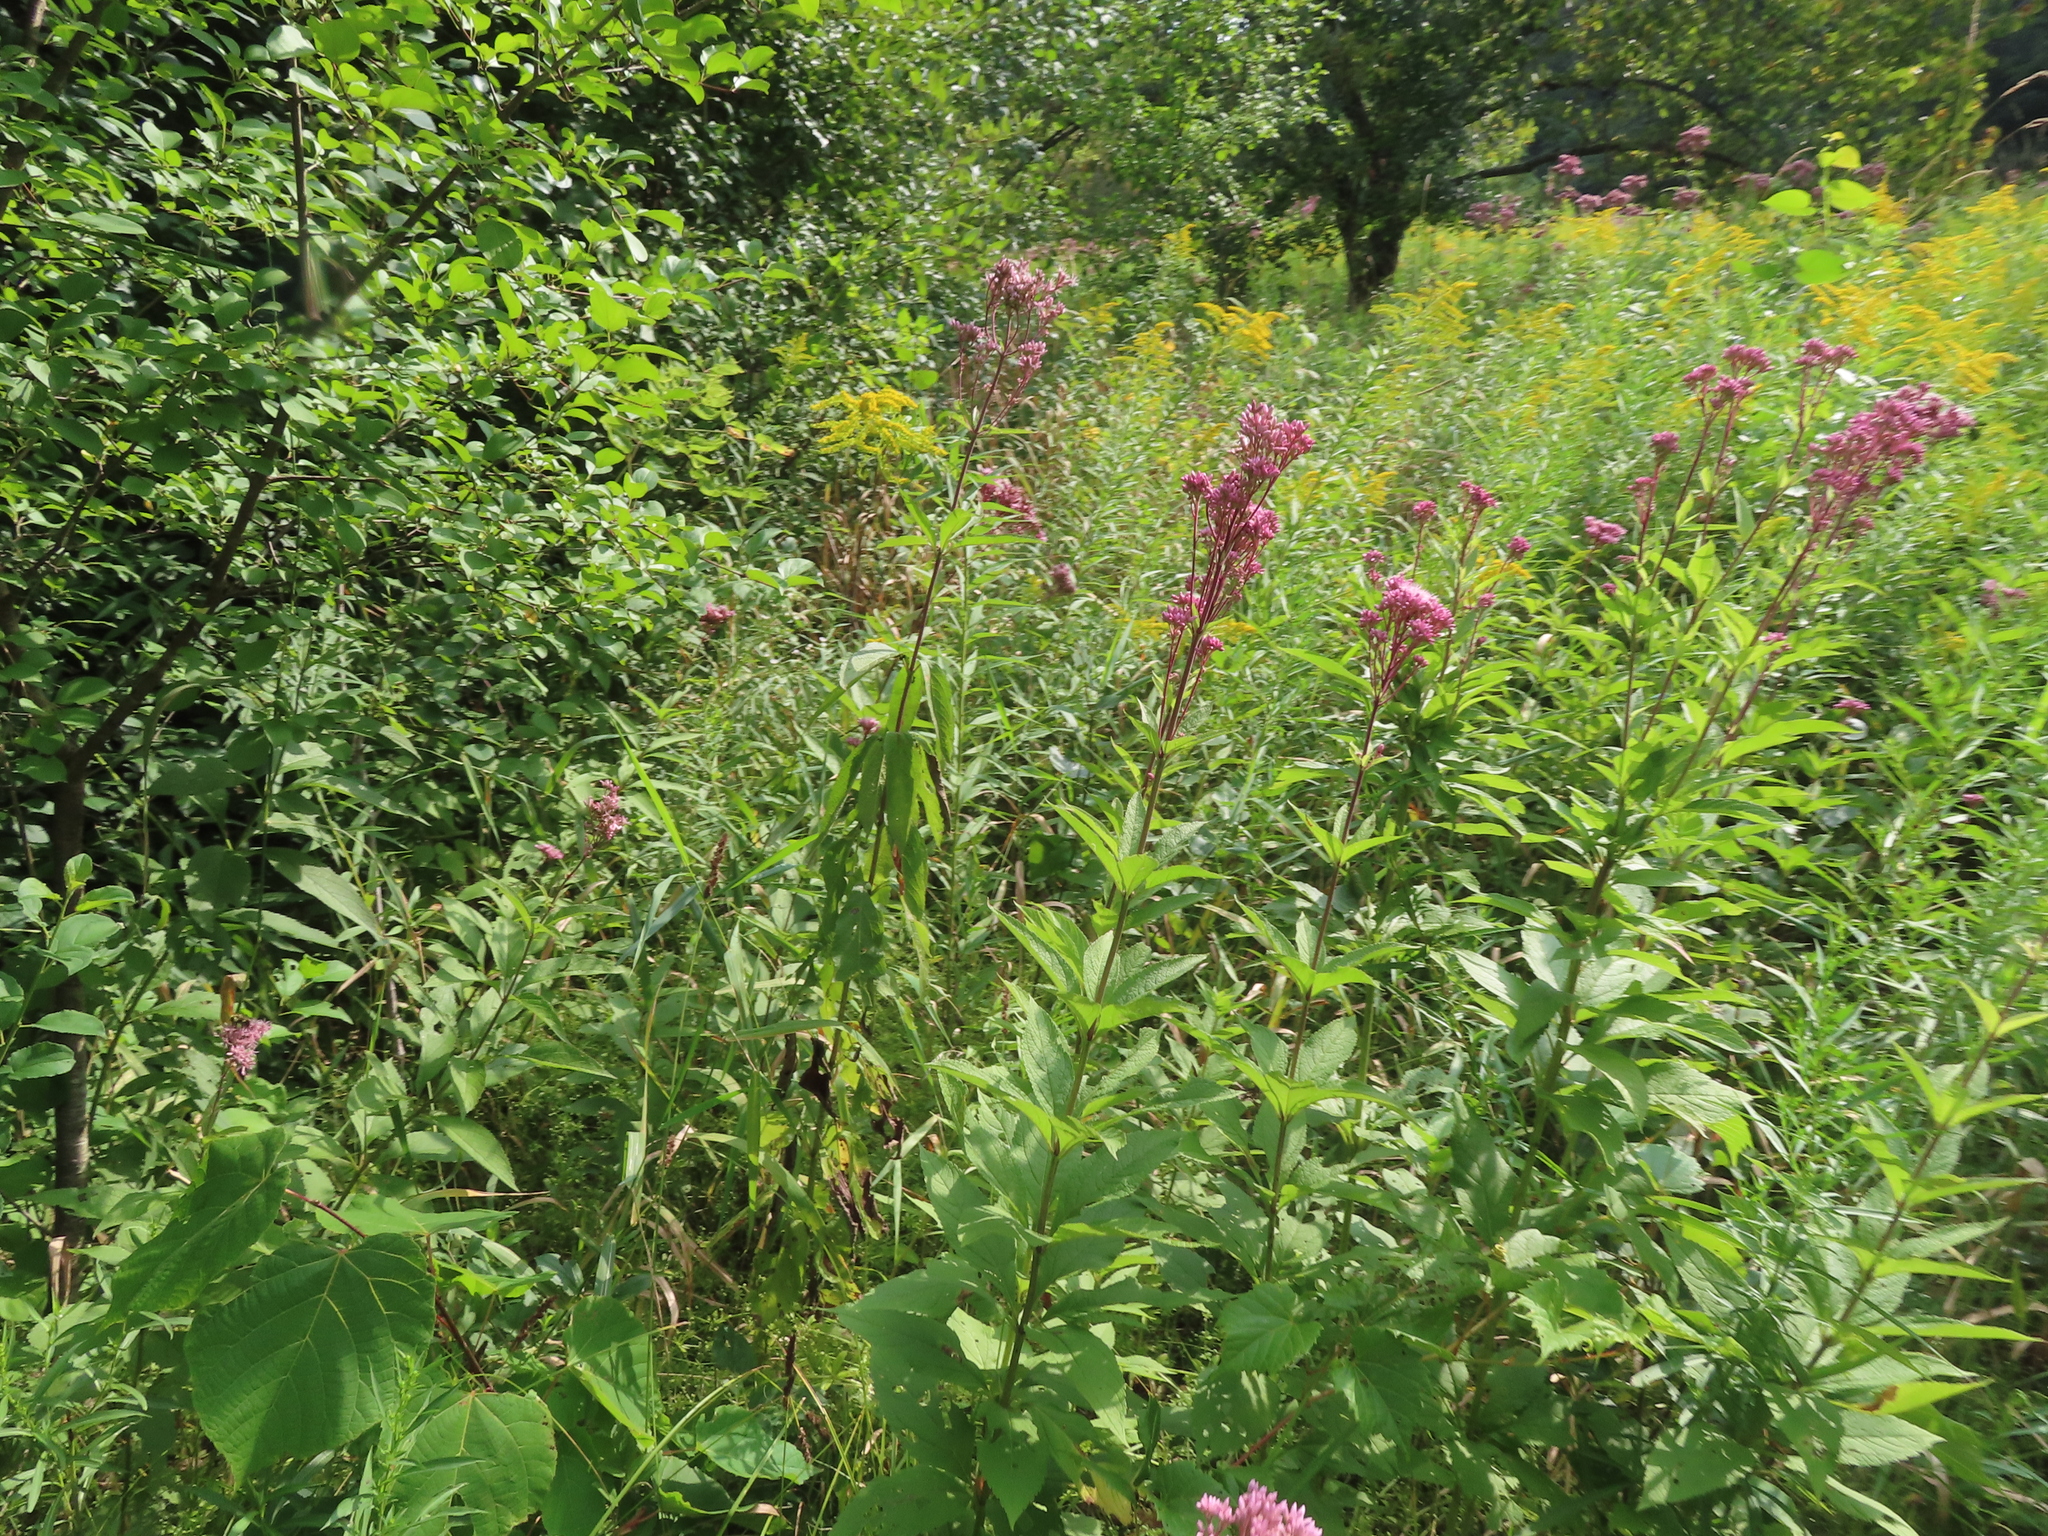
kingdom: Plantae
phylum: Tracheophyta
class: Magnoliopsida
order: Asterales
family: Asteraceae
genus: Eutrochium
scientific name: Eutrochium maculatum
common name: Spotted joe pye weed
